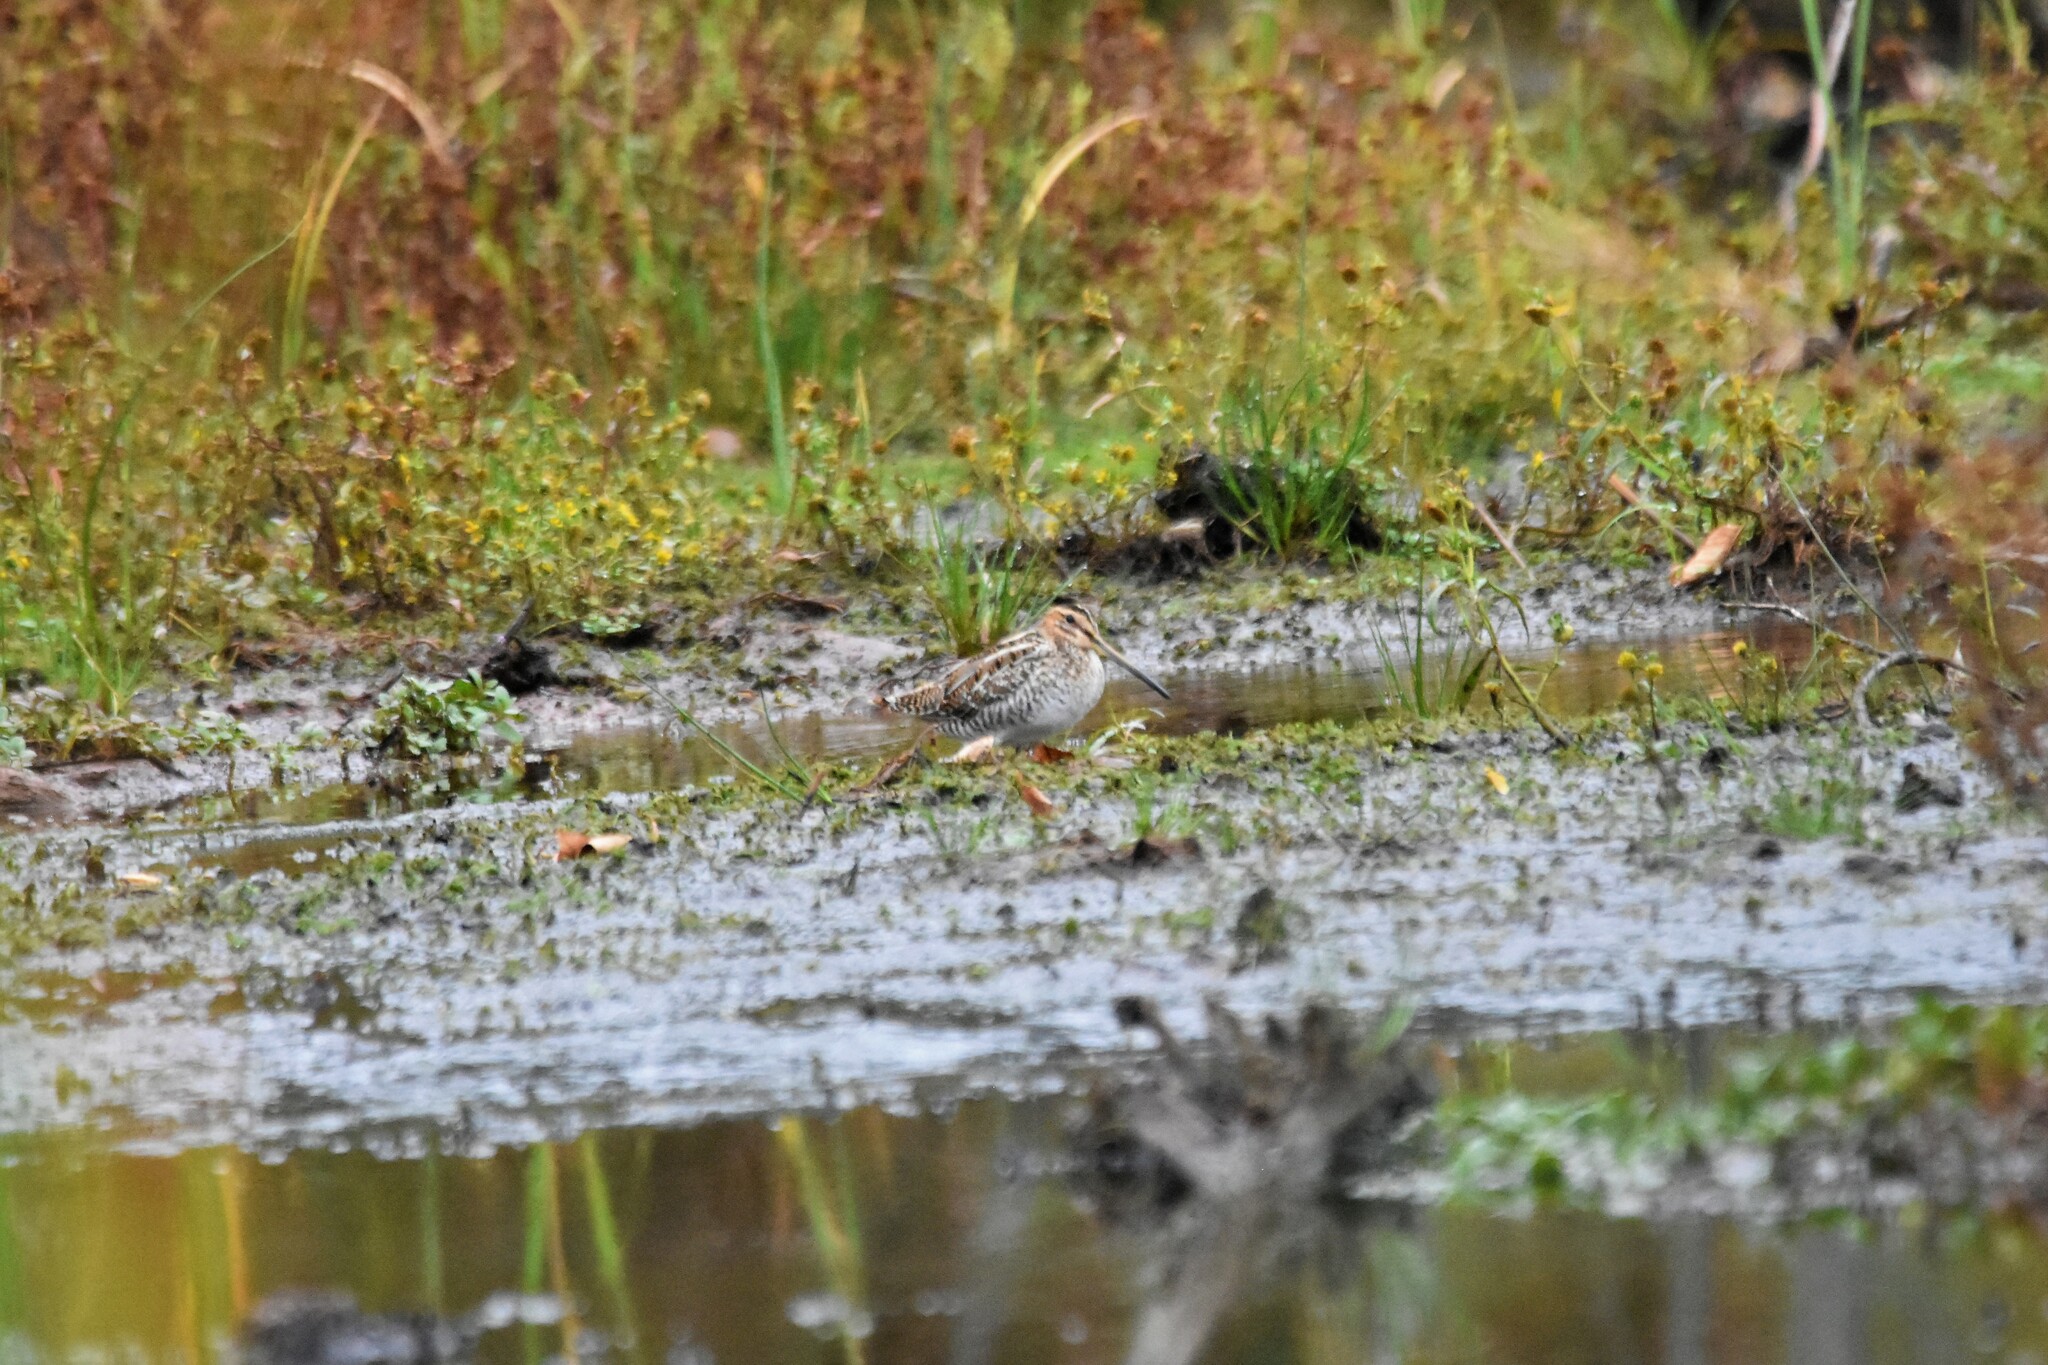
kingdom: Animalia
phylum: Chordata
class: Aves
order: Charadriiformes
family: Scolopacidae
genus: Gallinago
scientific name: Gallinago delicata
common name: Wilson's snipe
